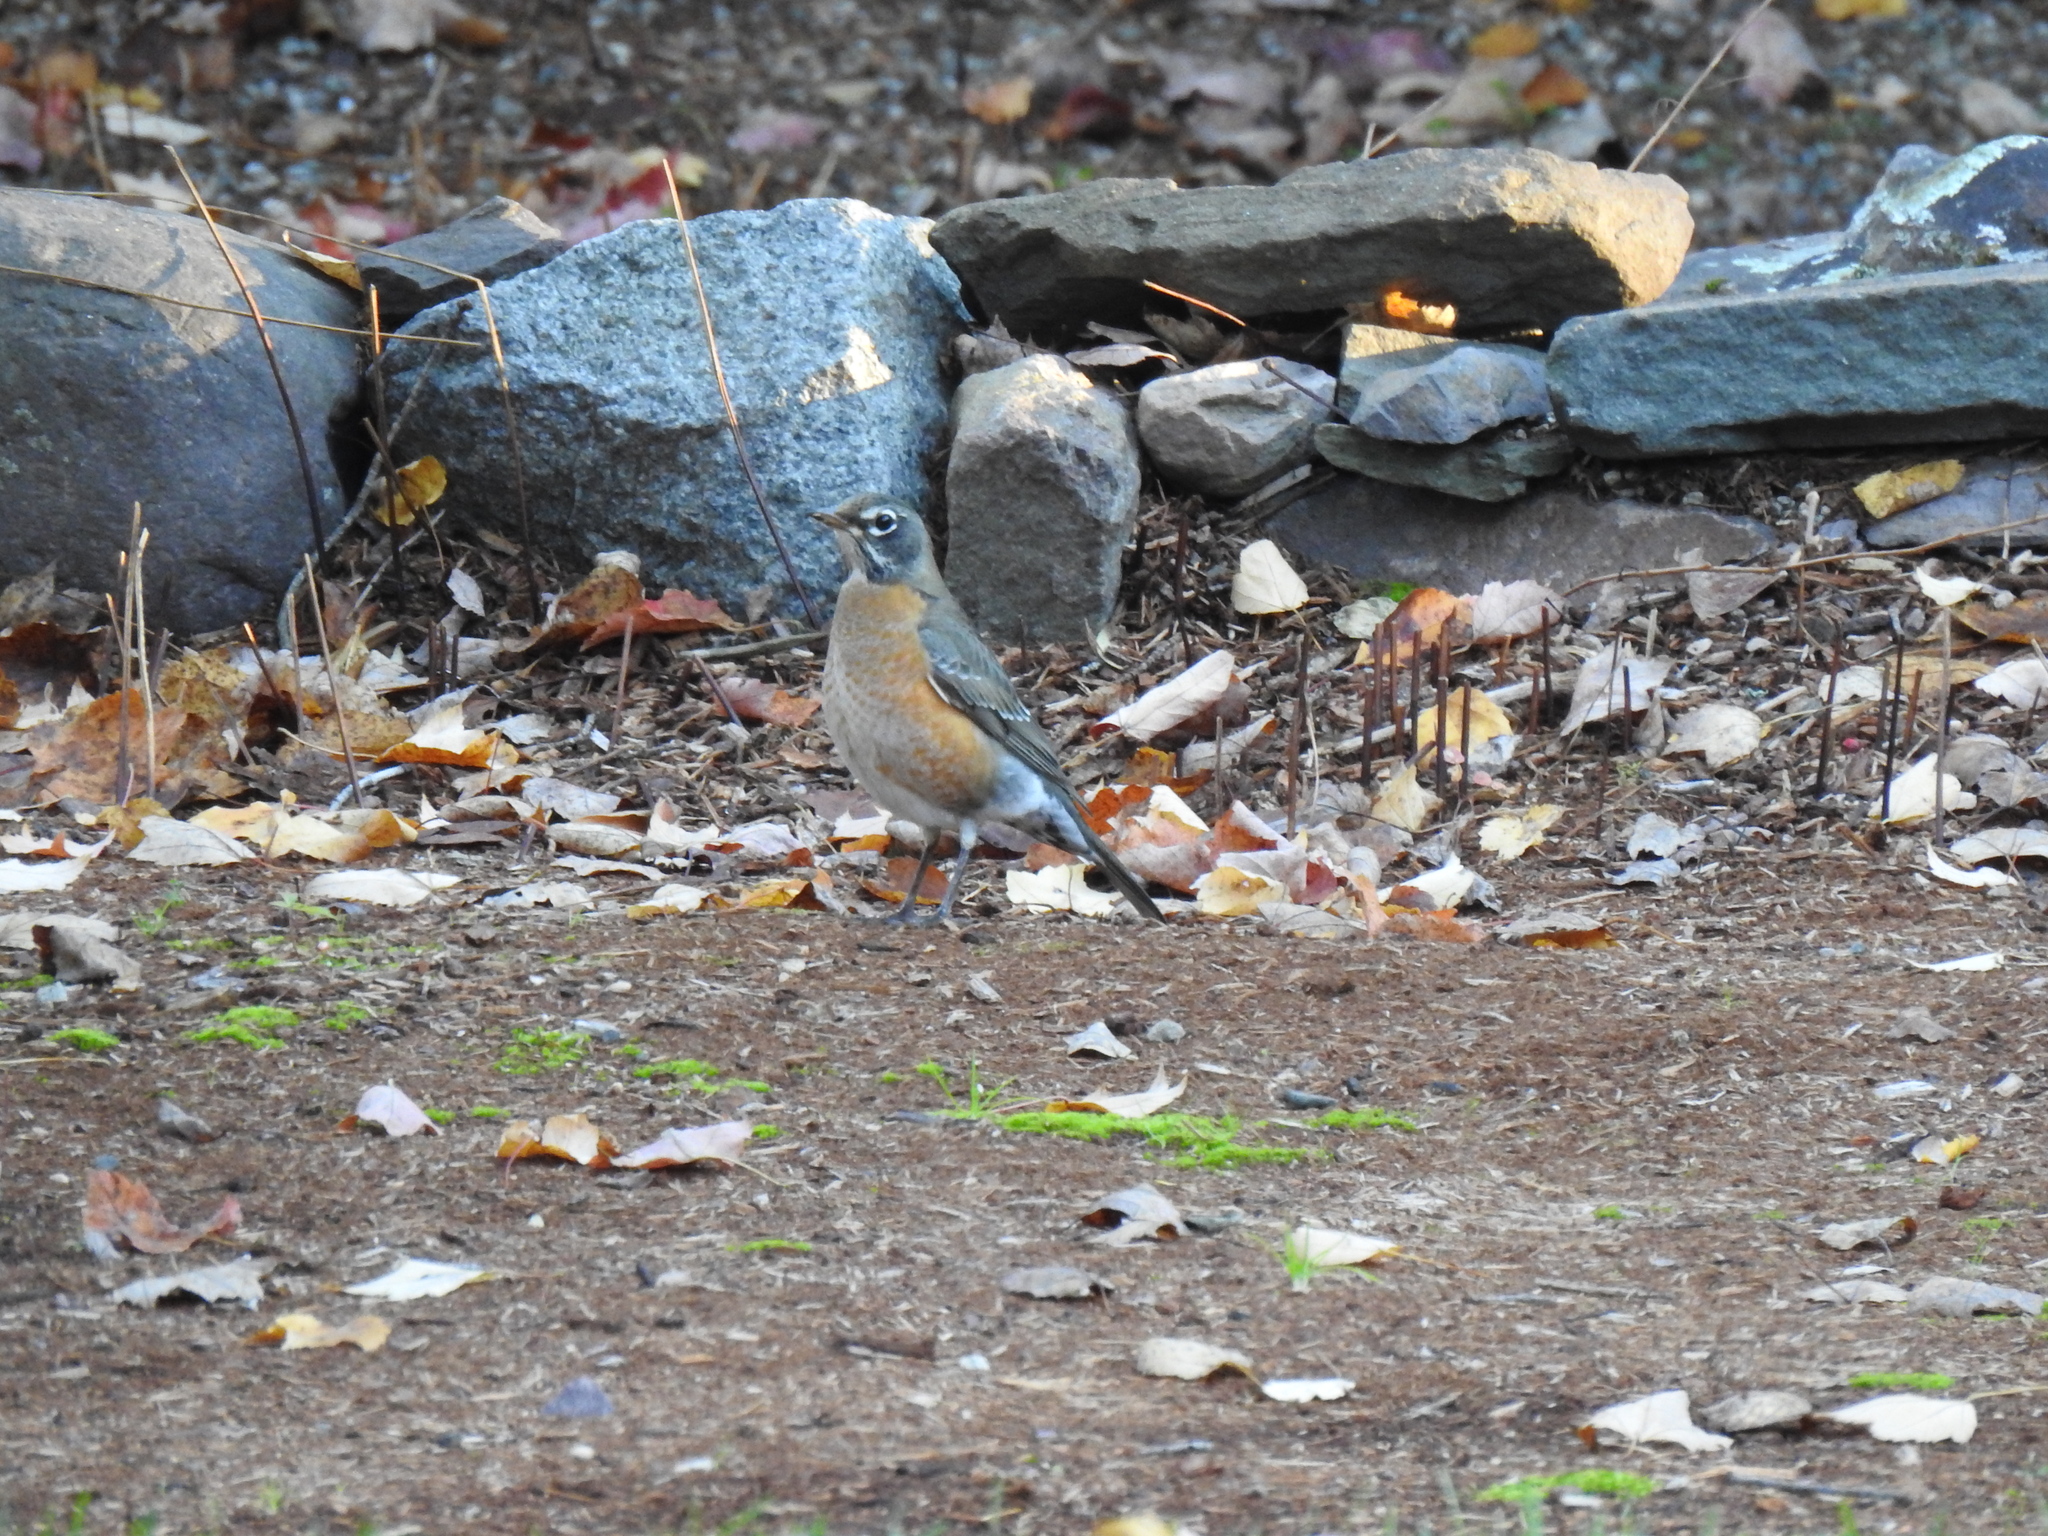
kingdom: Animalia
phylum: Chordata
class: Aves
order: Passeriformes
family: Turdidae
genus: Turdus
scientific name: Turdus migratorius
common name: American robin
